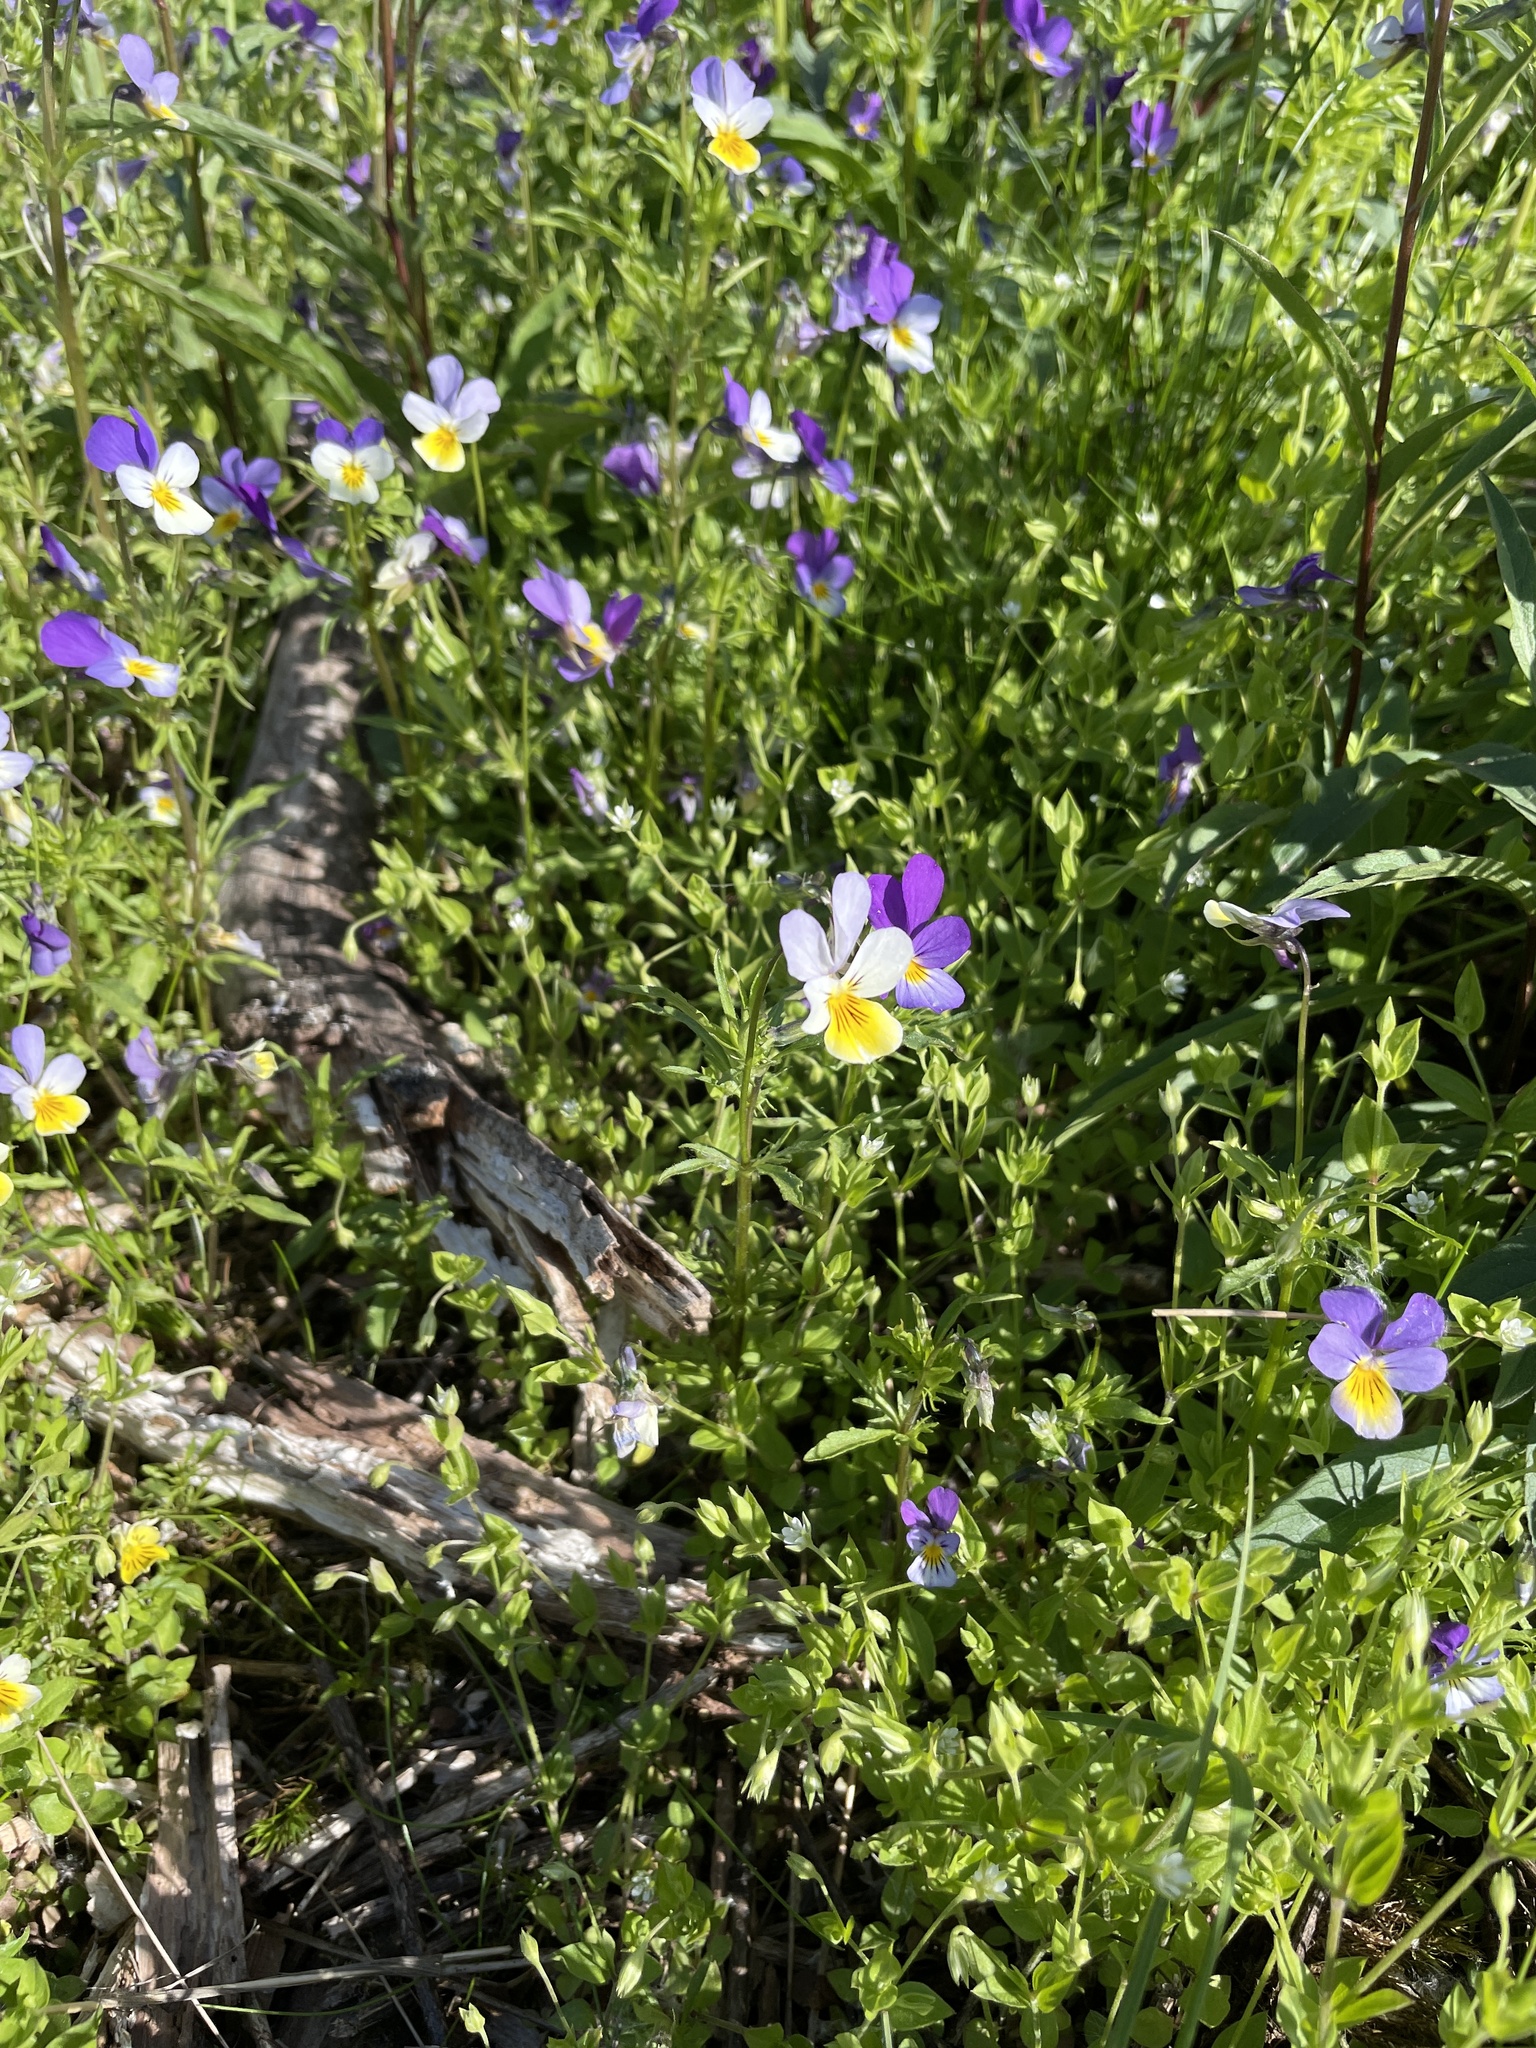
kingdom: Plantae
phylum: Tracheophyta
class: Magnoliopsida
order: Malpighiales
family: Violaceae
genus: Viola
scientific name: Viola tricolor
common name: Pansy
